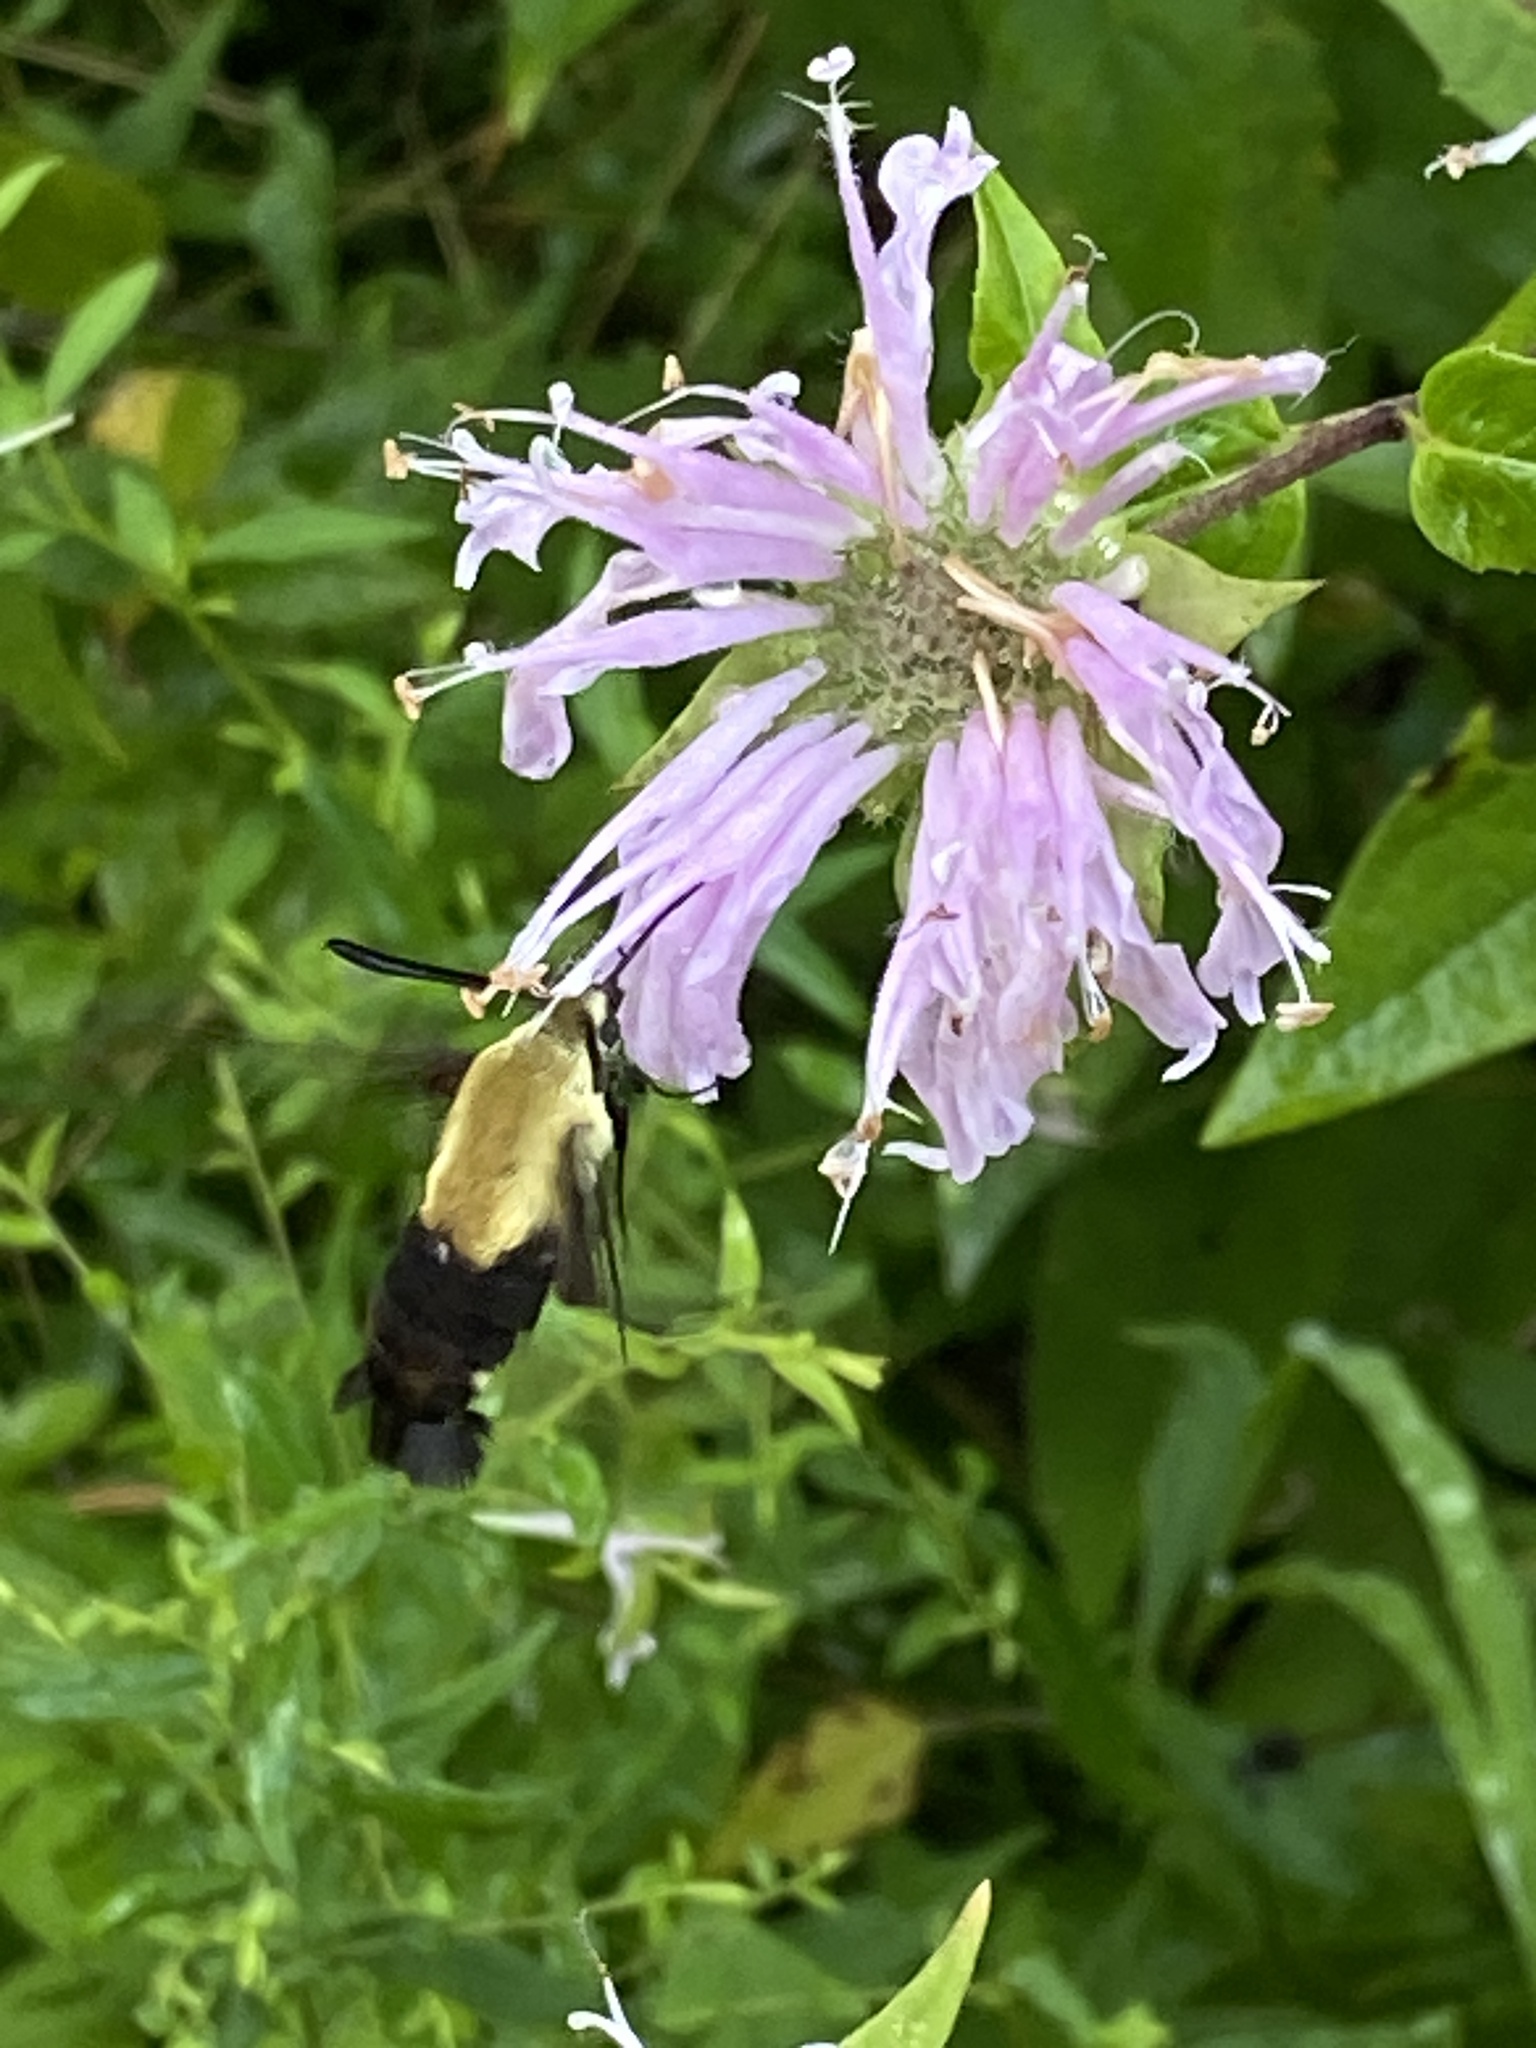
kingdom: Animalia
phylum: Arthropoda
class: Insecta
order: Lepidoptera
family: Sphingidae
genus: Hemaris
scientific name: Hemaris diffinis
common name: Bumblebee moth
